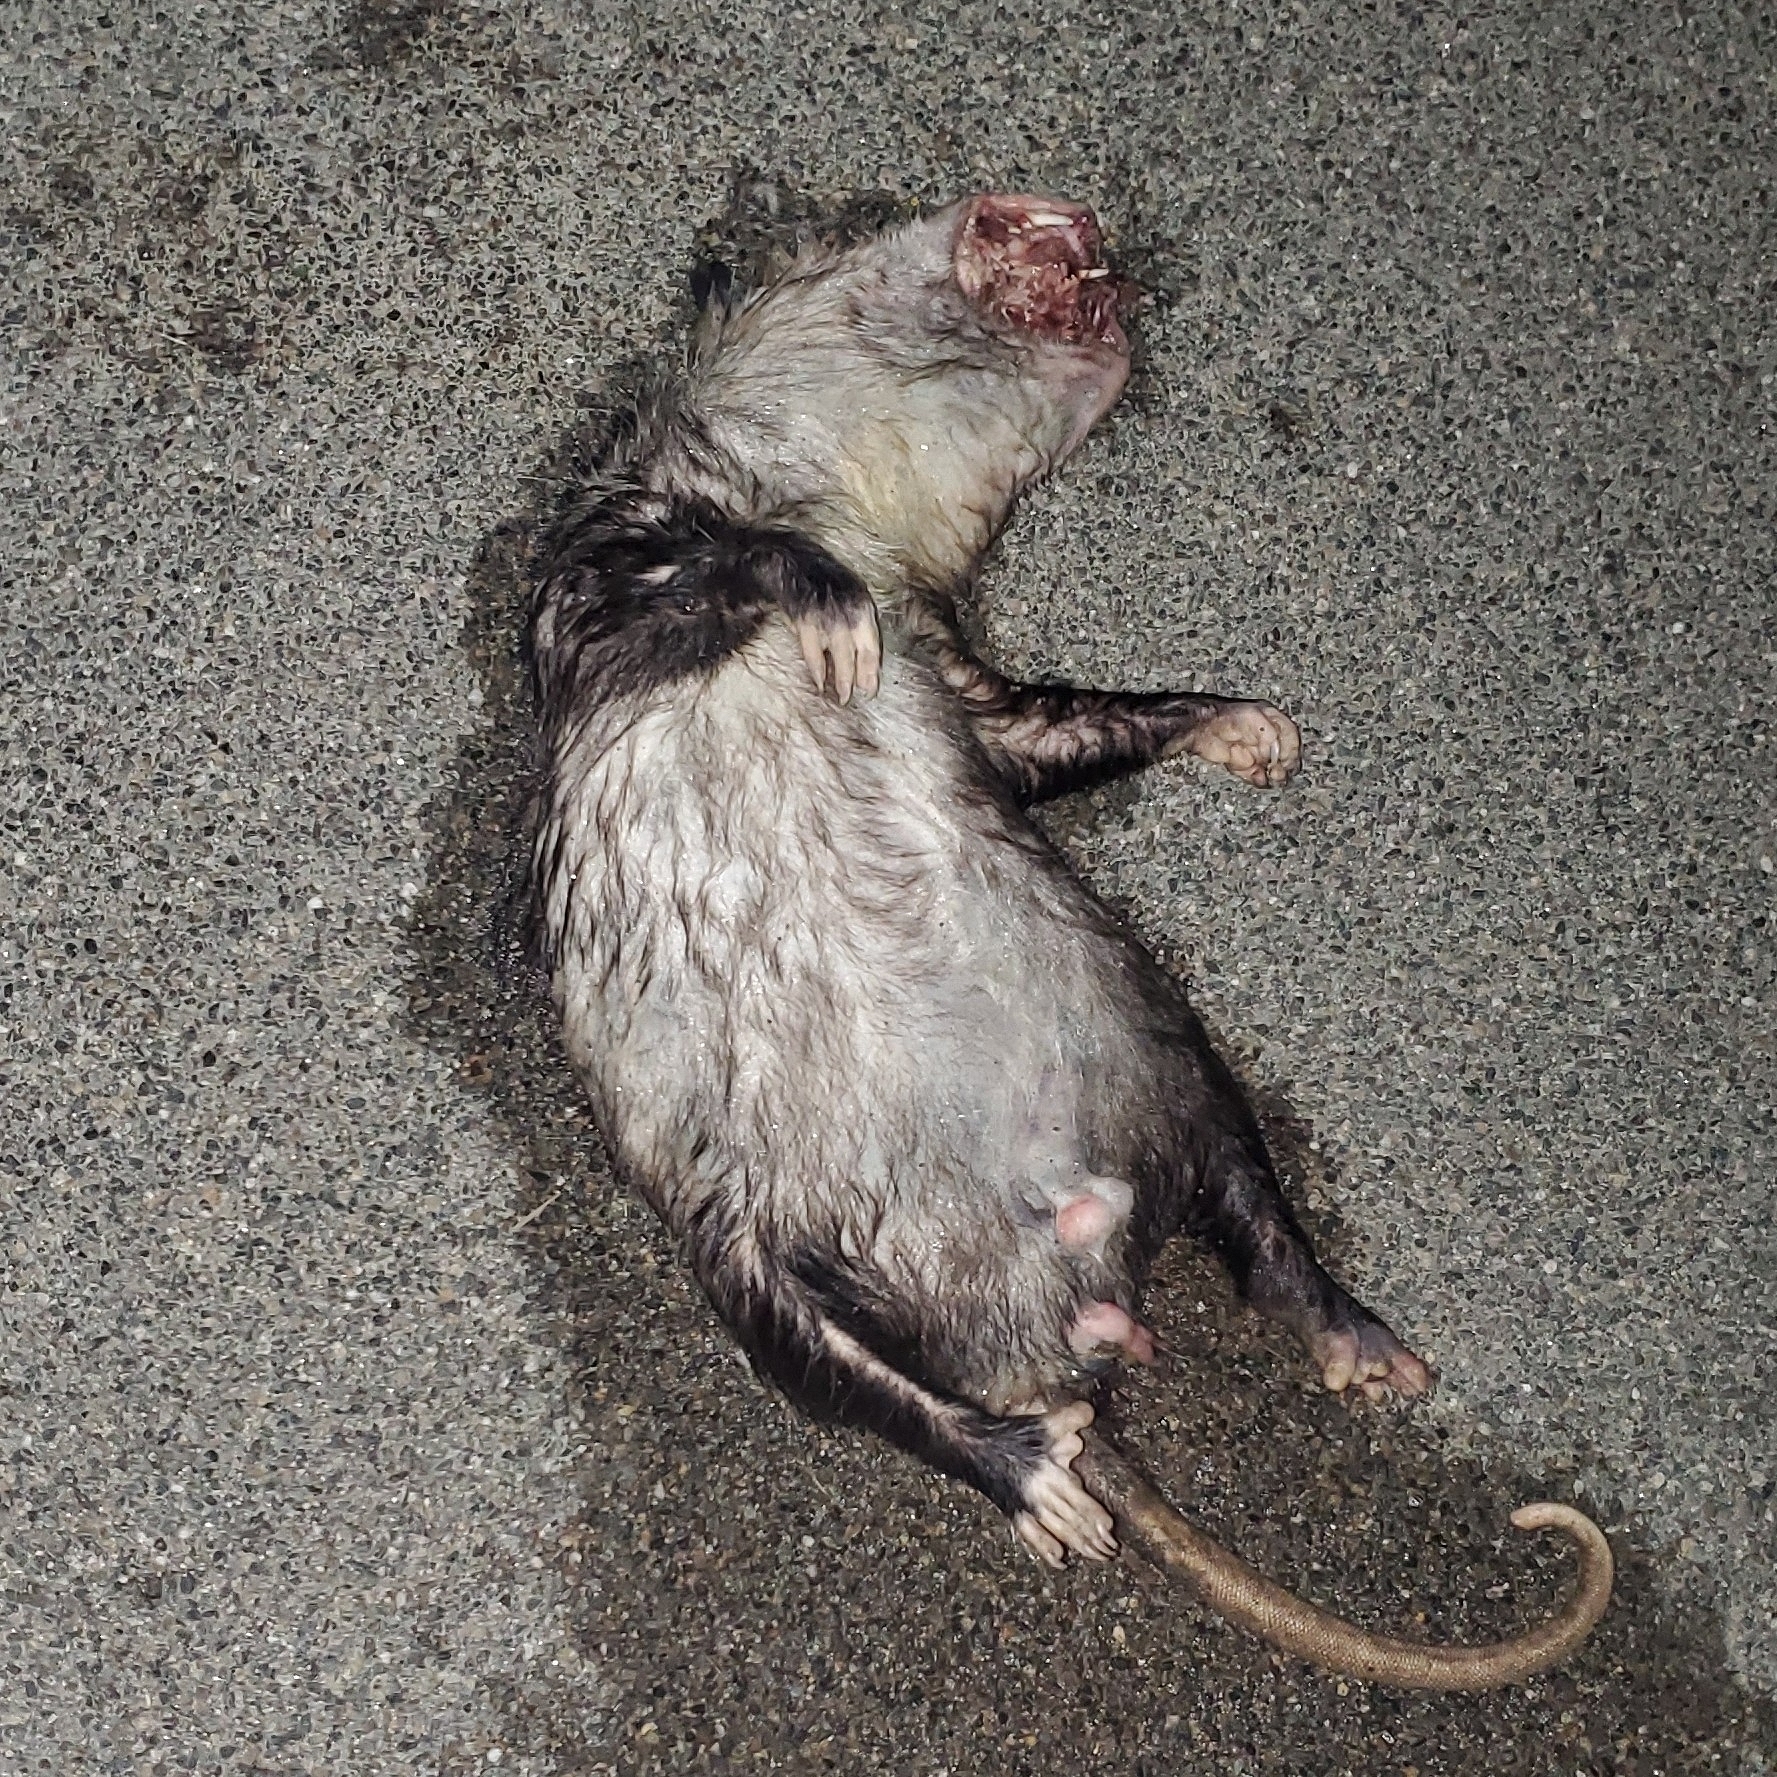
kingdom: Animalia
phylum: Chordata
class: Mammalia
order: Didelphimorphia
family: Didelphidae
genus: Didelphis
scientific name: Didelphis virginiana
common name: Virginia opossum
